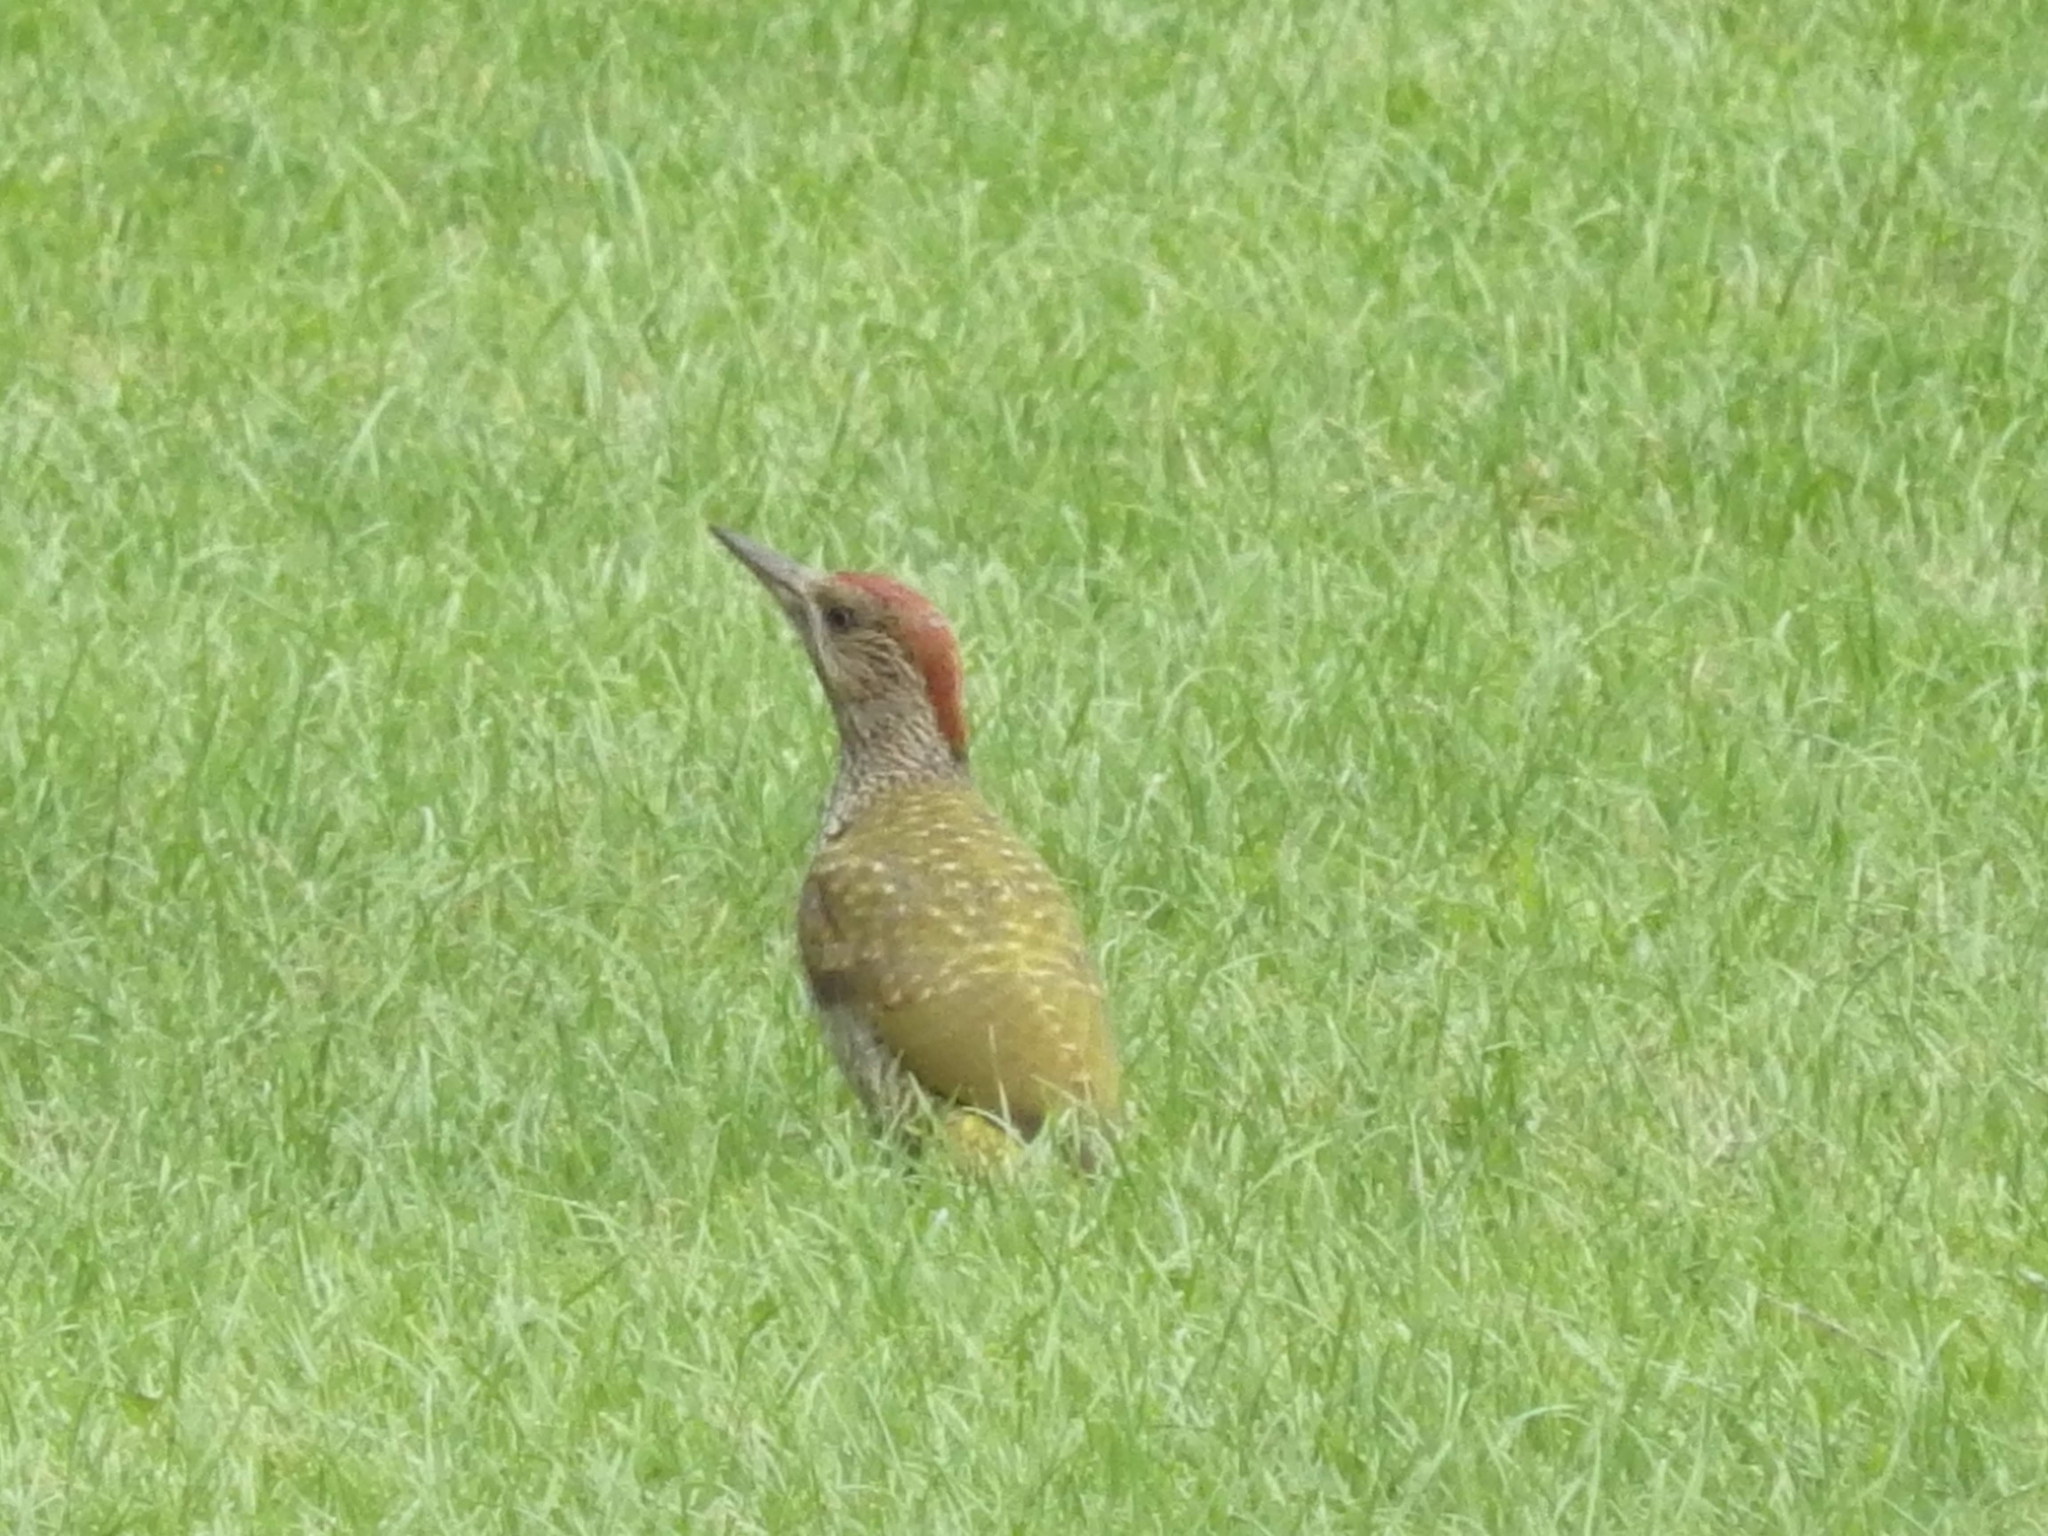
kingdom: Animalia
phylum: Chordata
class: Aves
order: Piciformes
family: Picidae
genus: Picus
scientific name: Picus viridis
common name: European green woodpecker
